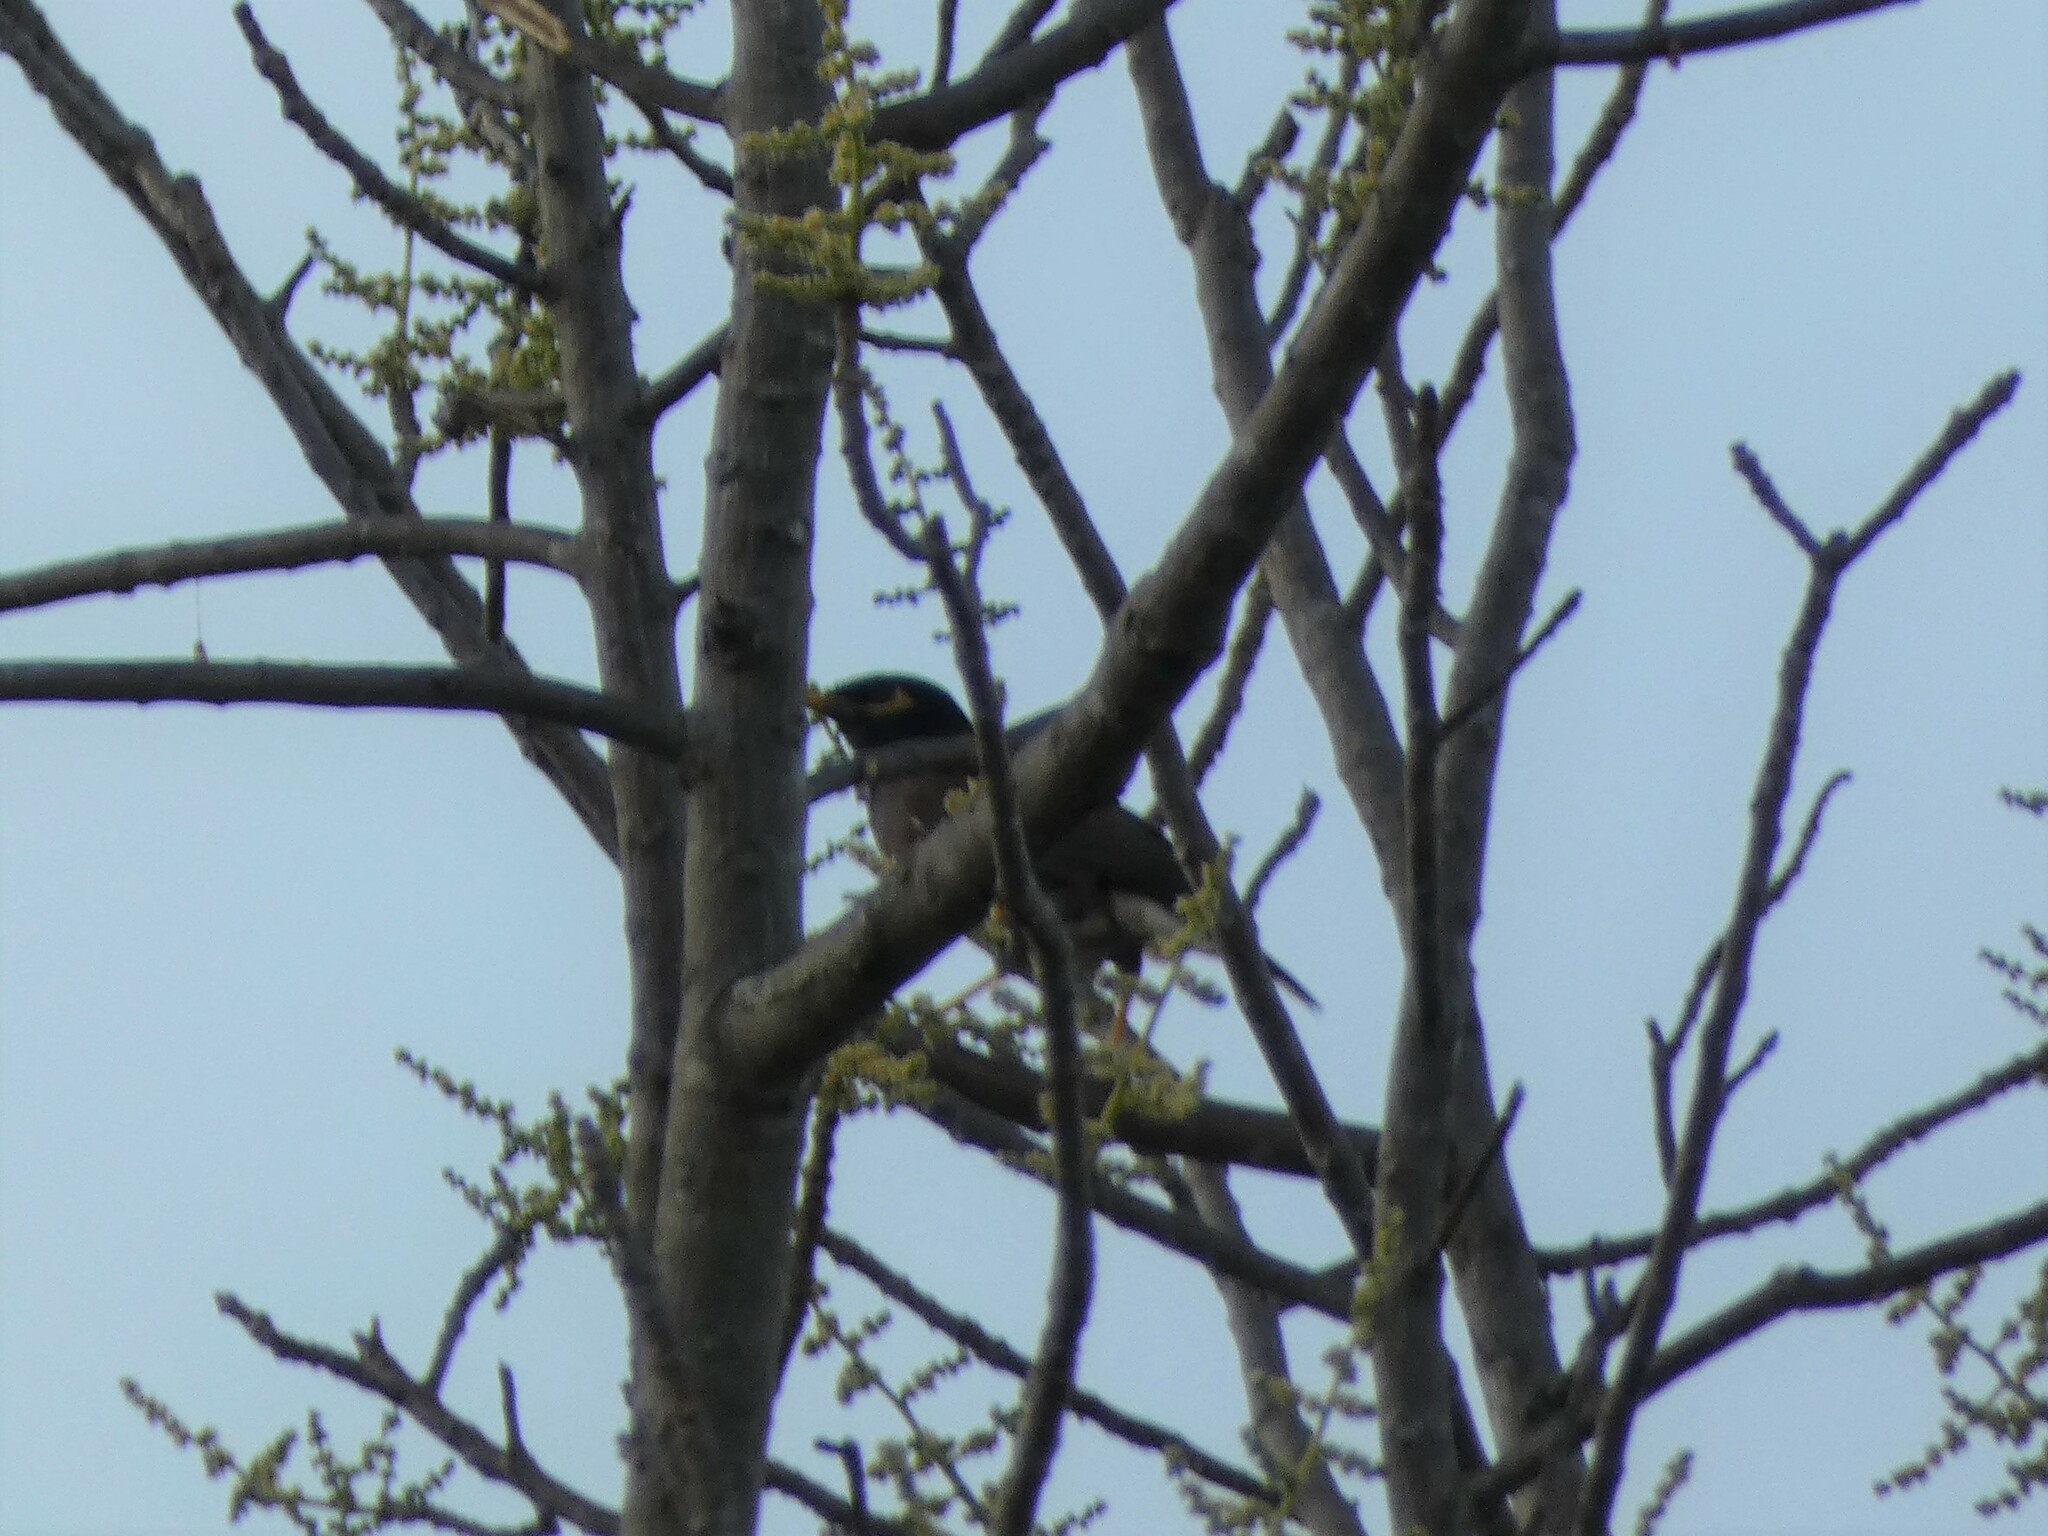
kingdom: Animalia
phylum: Chordata
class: Aves
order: Passeriformes
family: Sturnidae
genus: Acridotheres
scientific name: Acridotheres tristis
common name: Common myna
